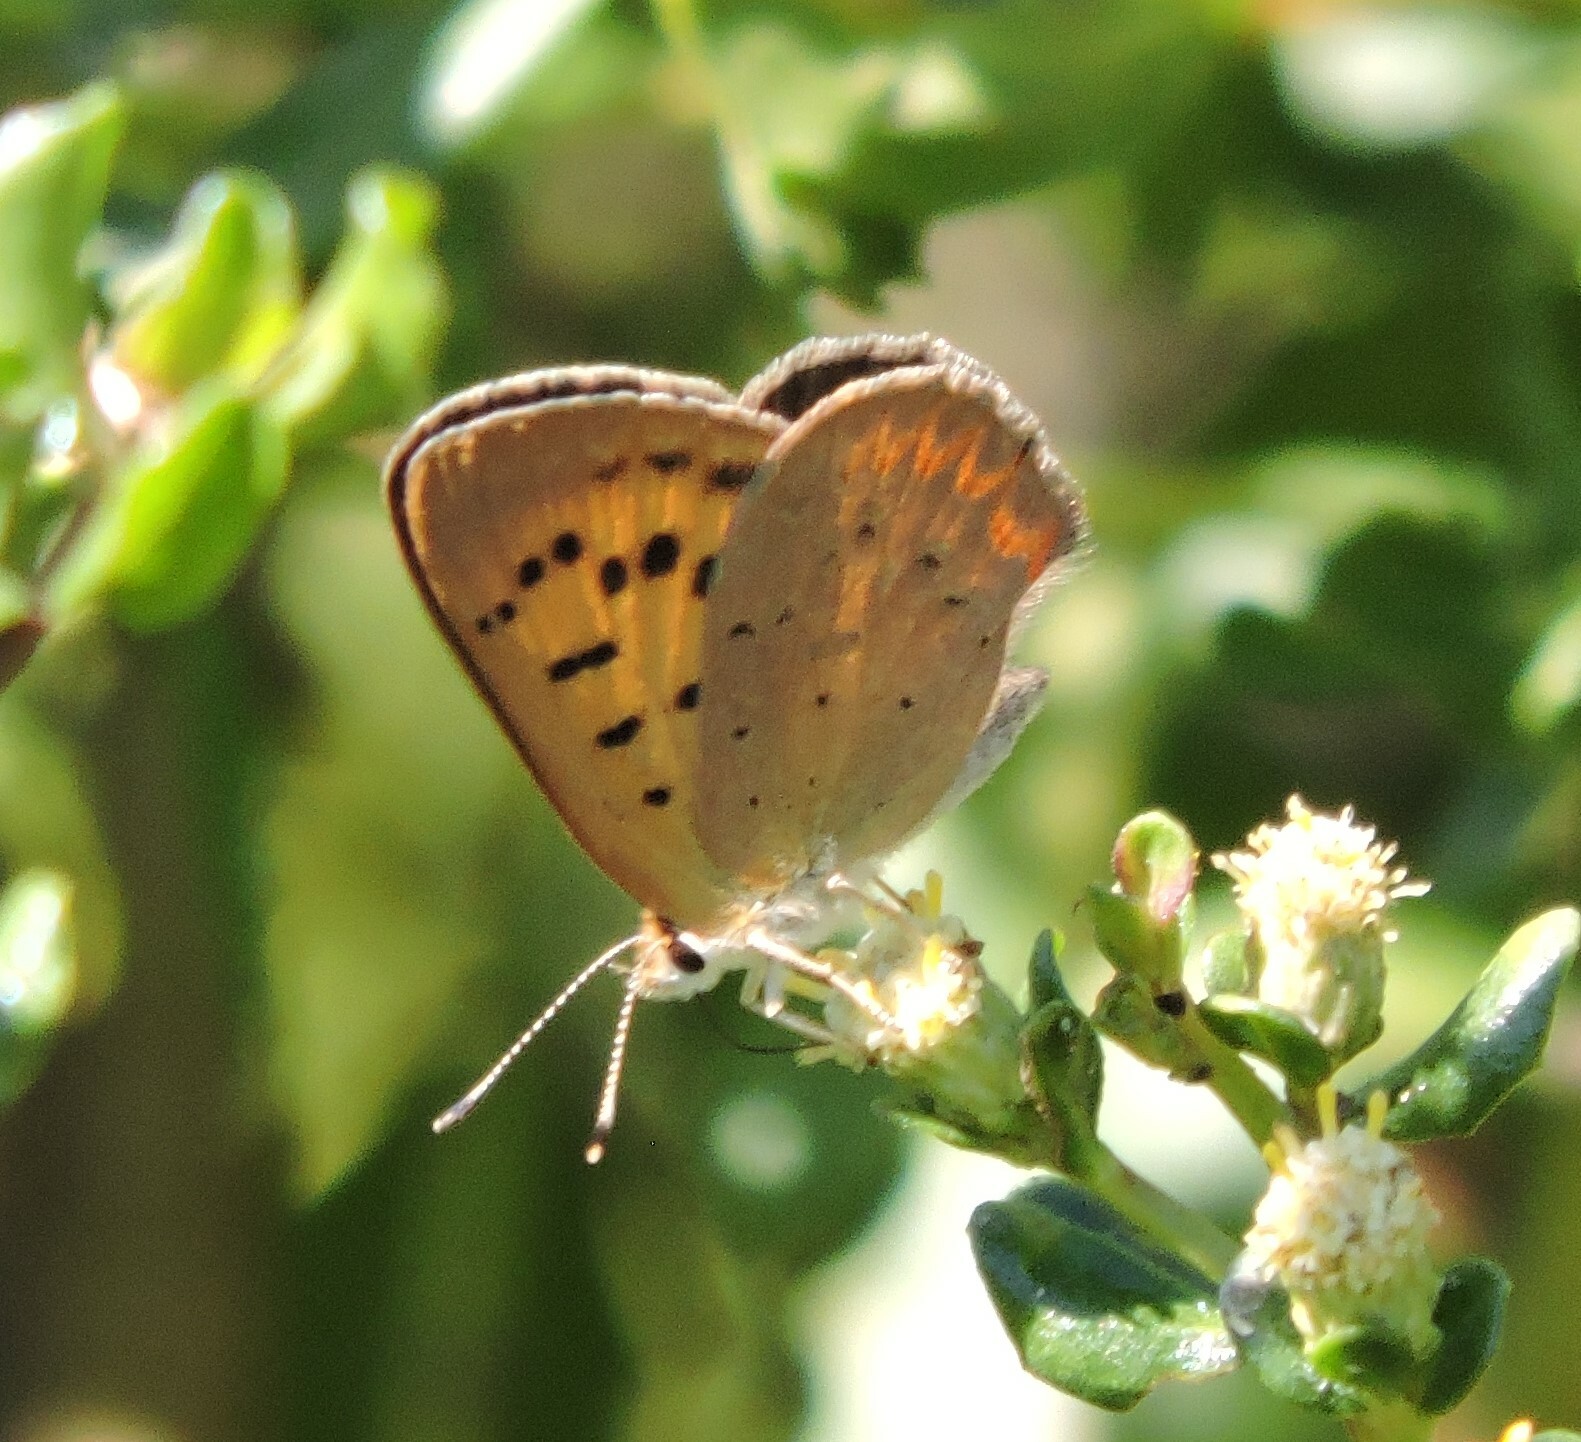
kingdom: Animalia
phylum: Arthropoda
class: Insecta
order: Lepidoptera
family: Lycaenidae
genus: Tharsalea
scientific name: Tharsalea helloides
